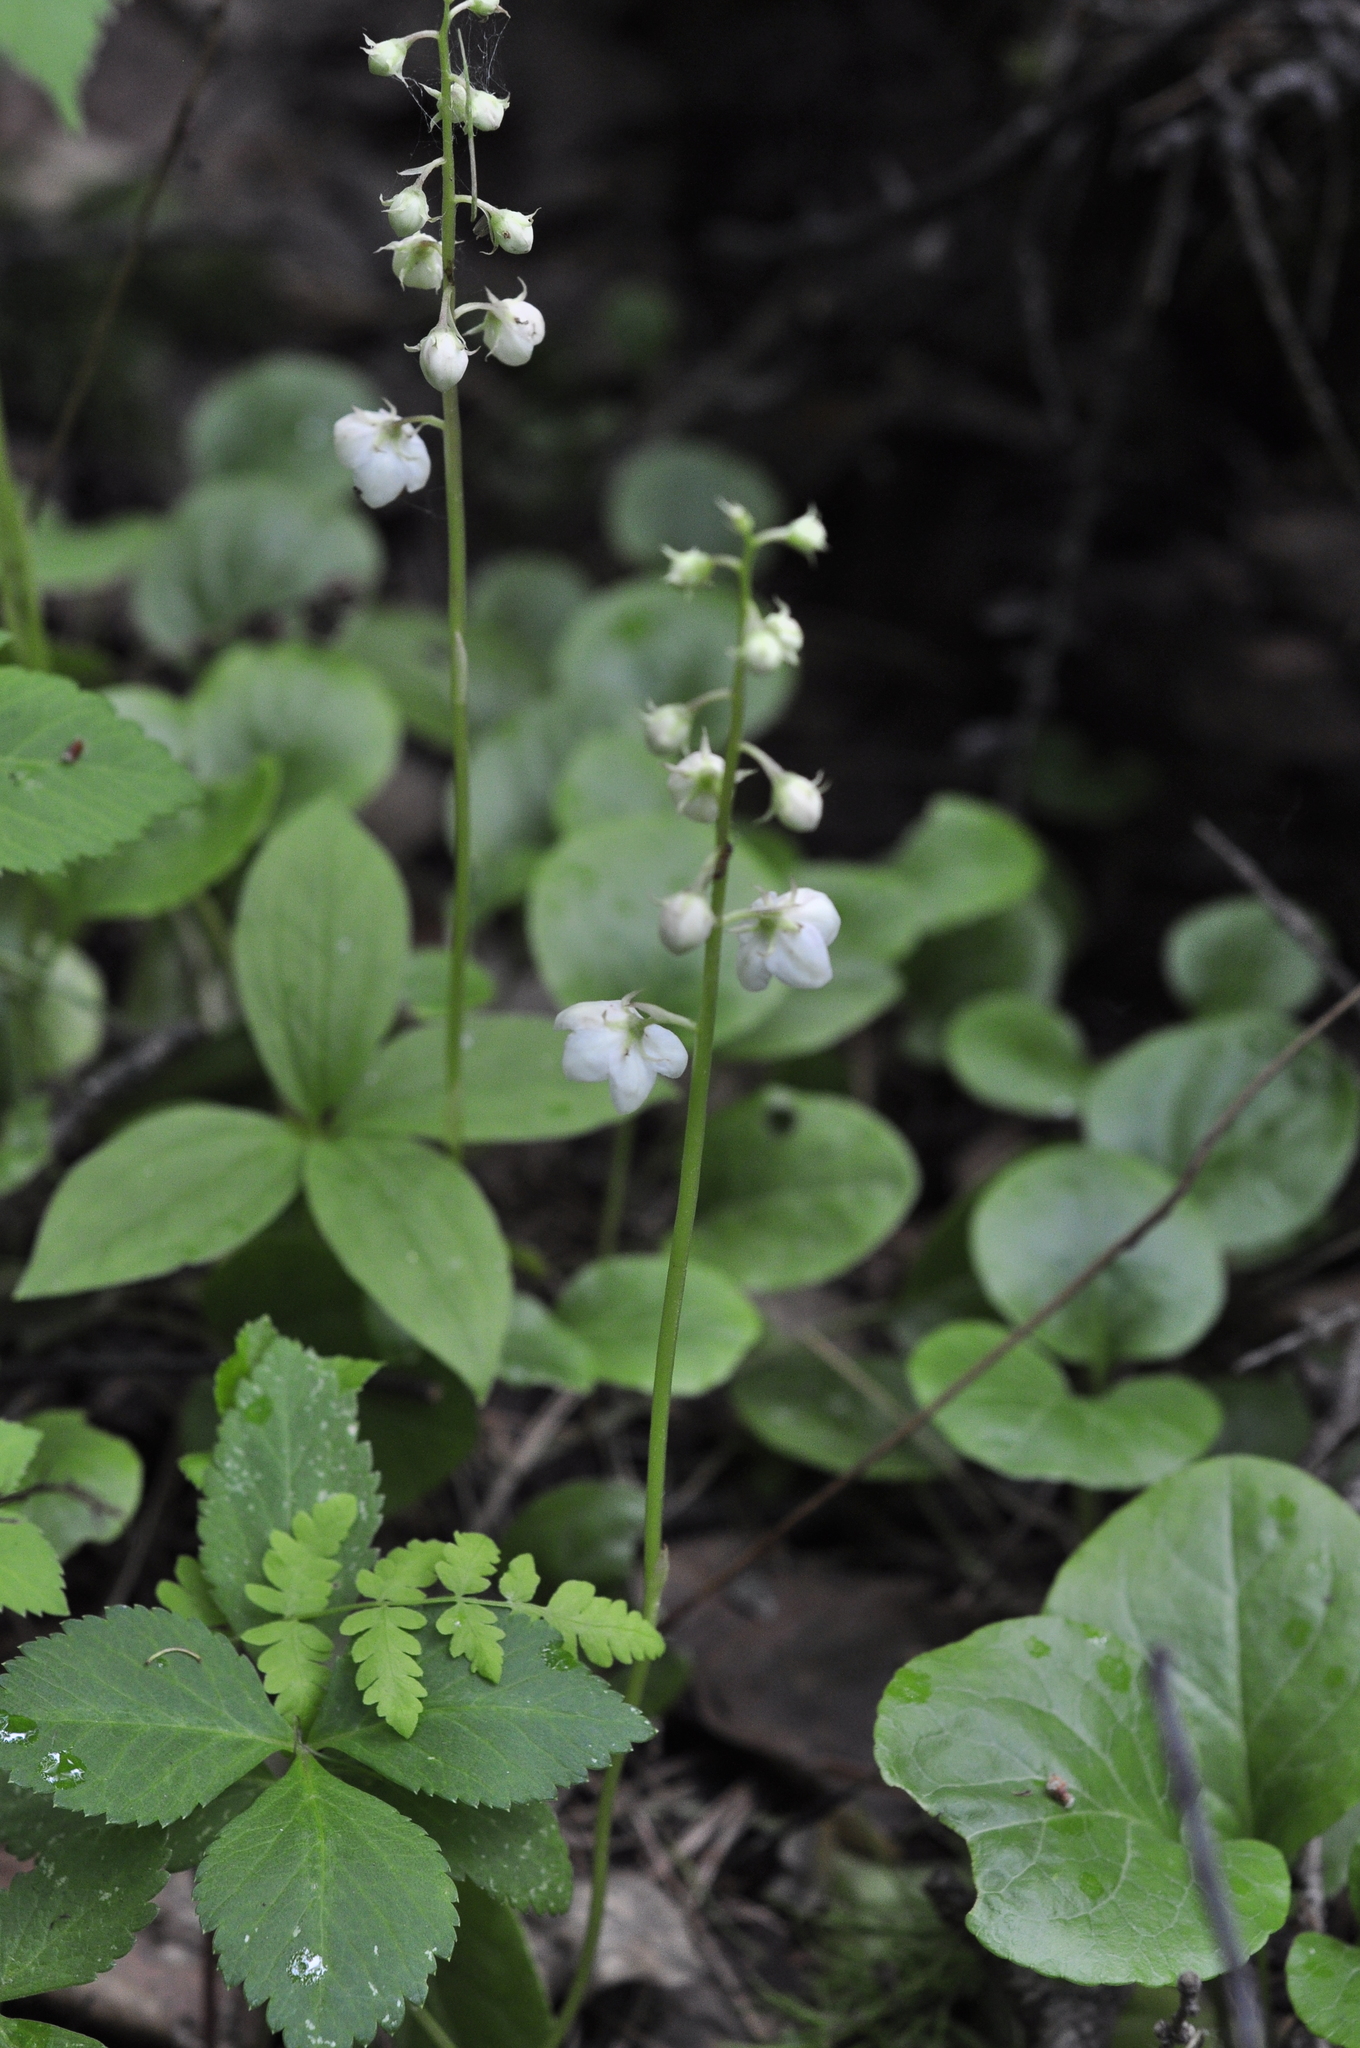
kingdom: Plantae
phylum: Tracheophyta
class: Magnoliopsida
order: Ericales
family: Ericaceae
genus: Pyrola
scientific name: Pyrola rotundifolia
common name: Round-leaved wintergreen
